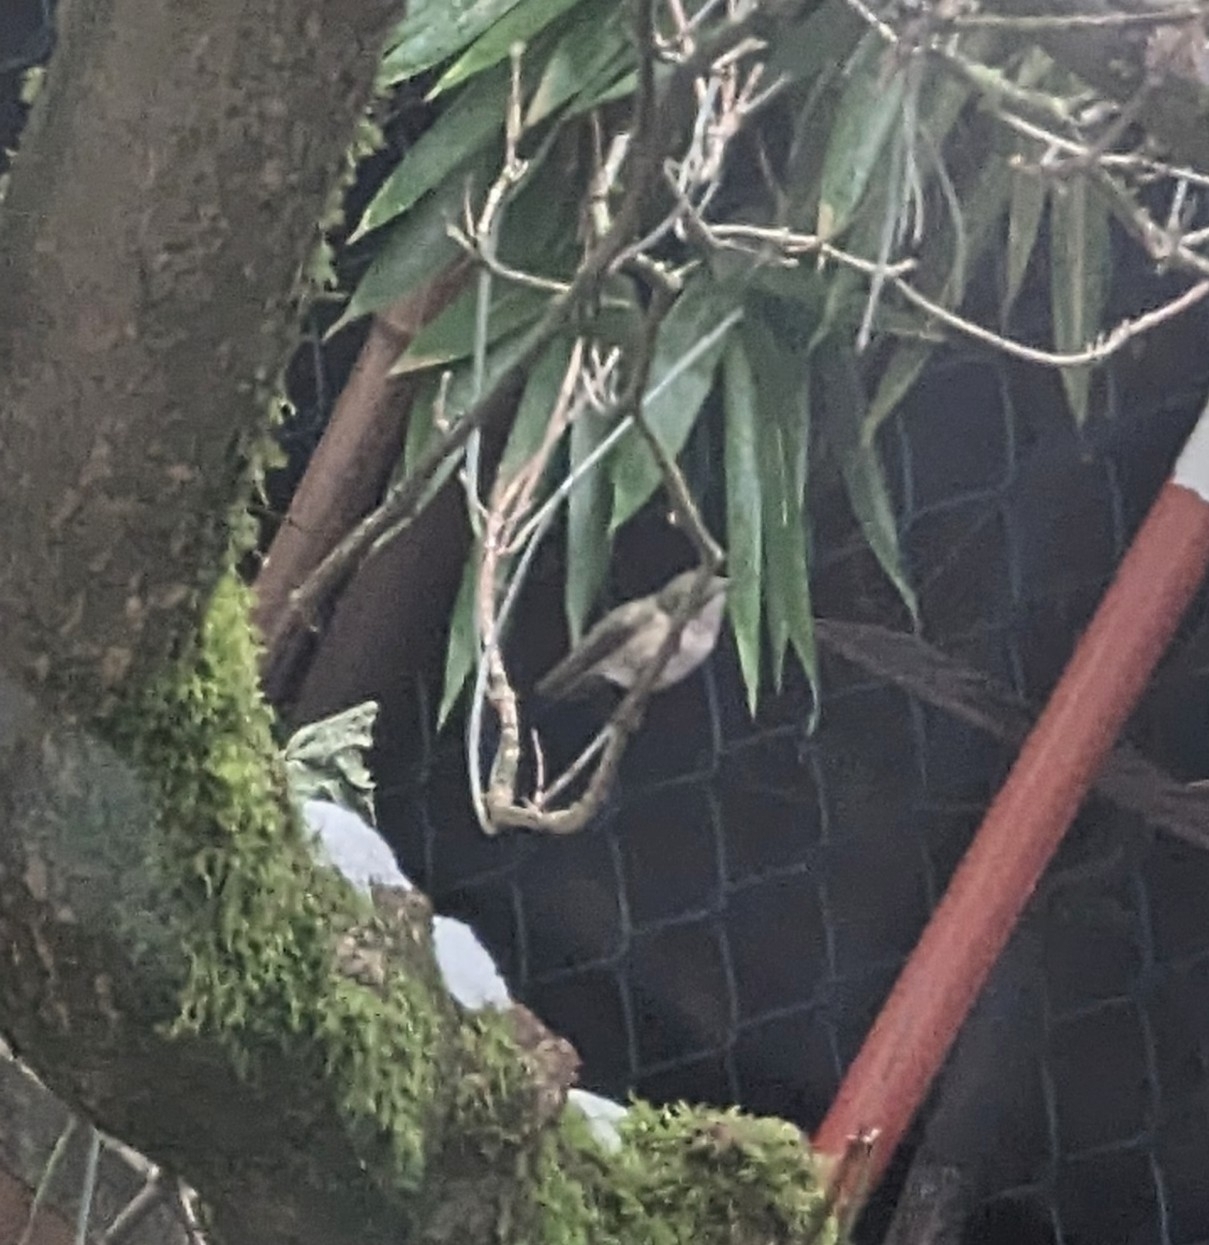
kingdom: Animalia
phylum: Chordata
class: Aves
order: Apodiformes
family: Trochilidae
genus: Calypte
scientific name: Calypte anna
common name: Anna's hummingbird
